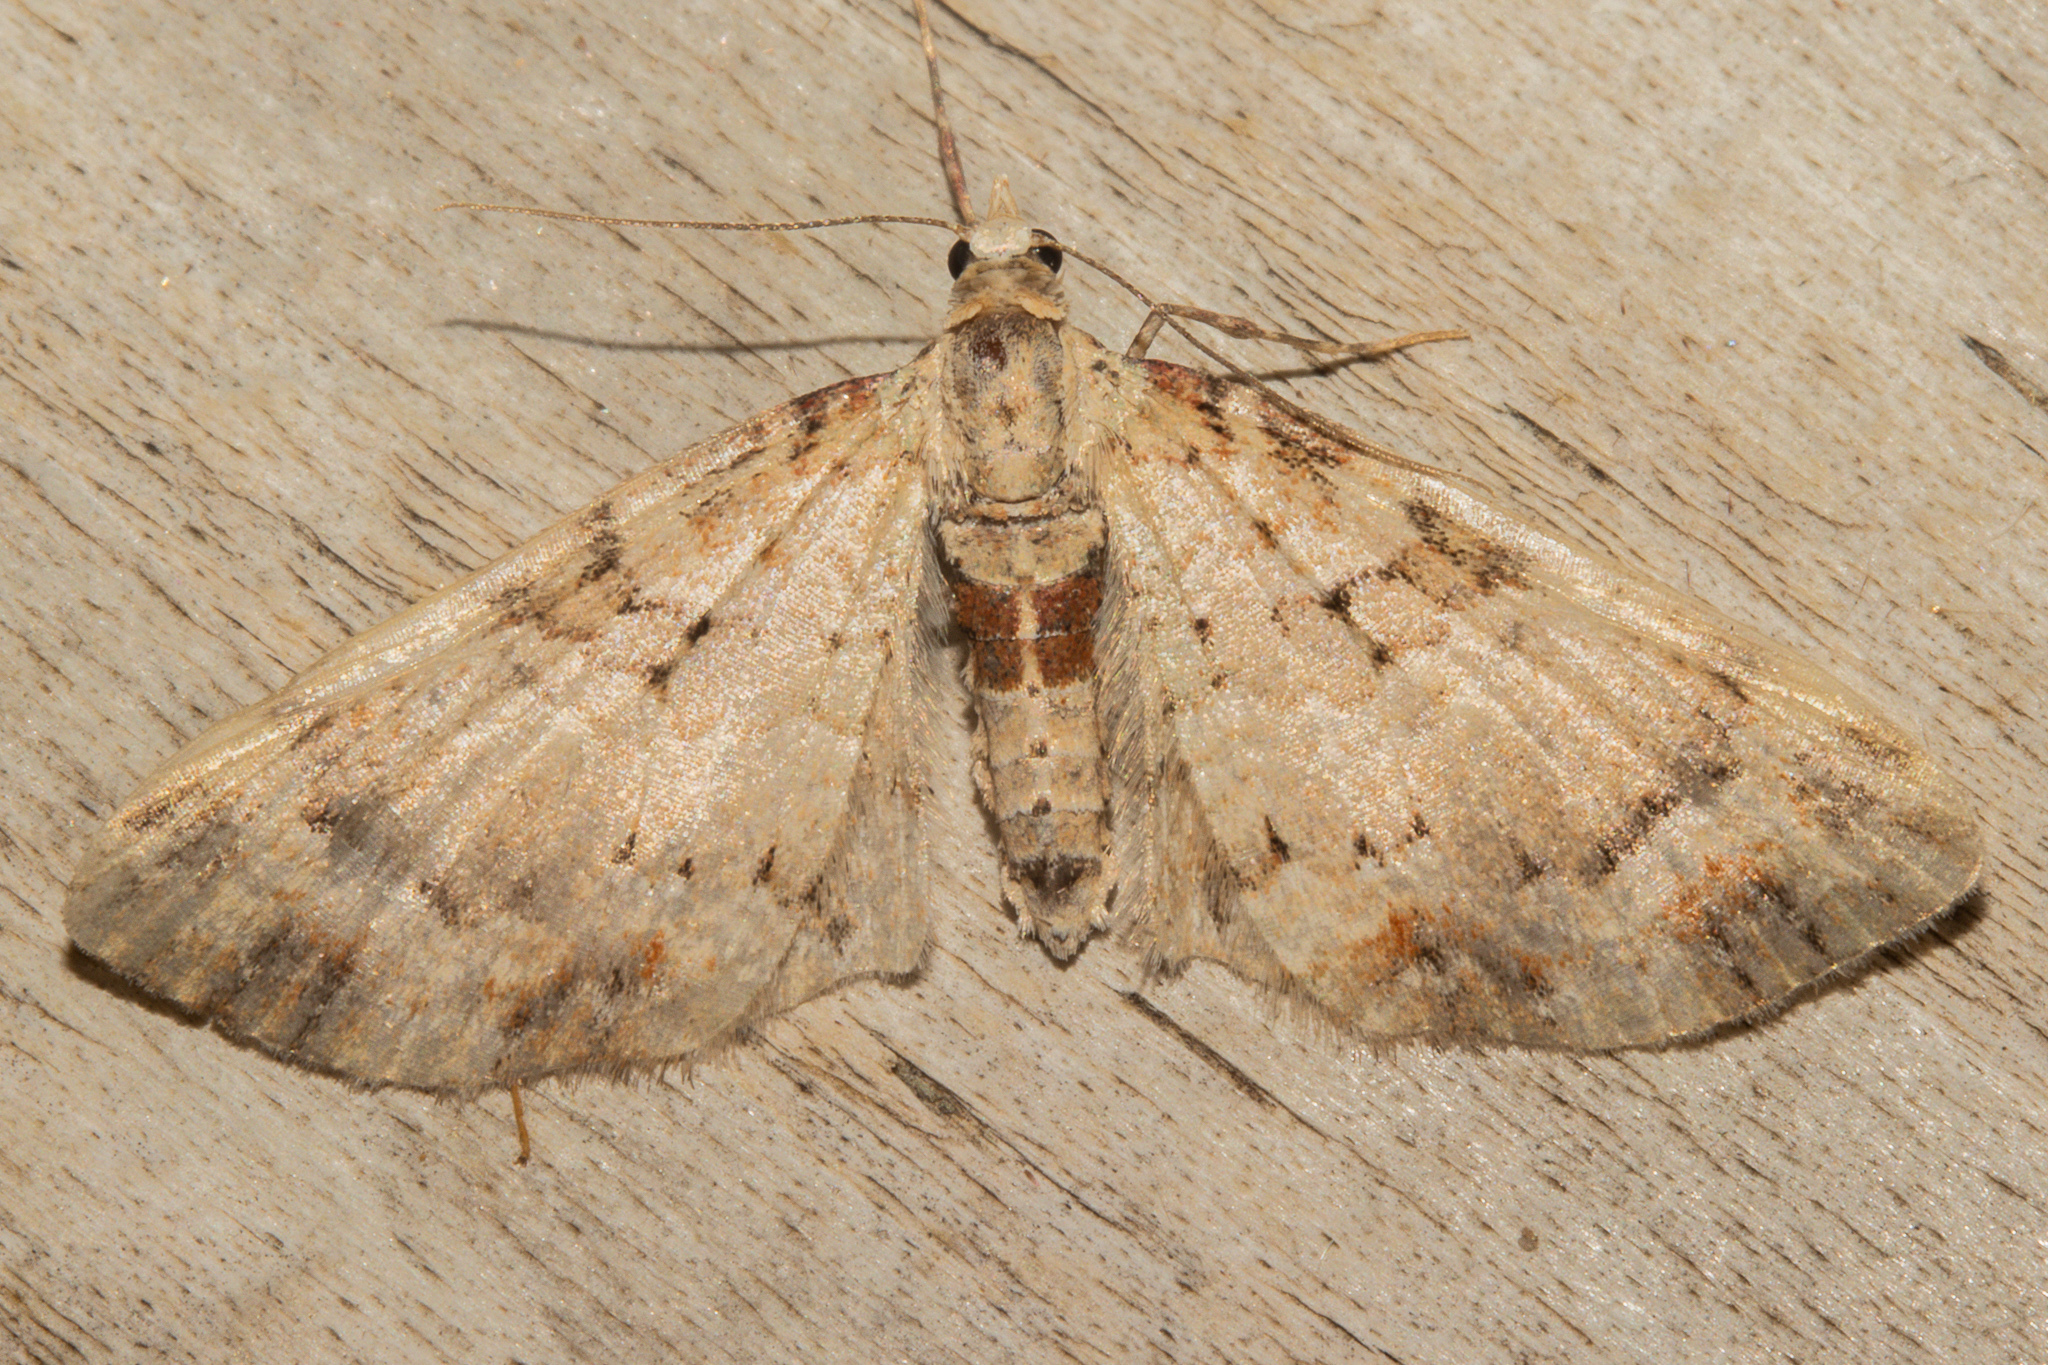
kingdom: Animalia
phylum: Arthropoda
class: Insecta
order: Lepidoptera
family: Geometridae
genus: Idaea
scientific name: Idaea mutanda
